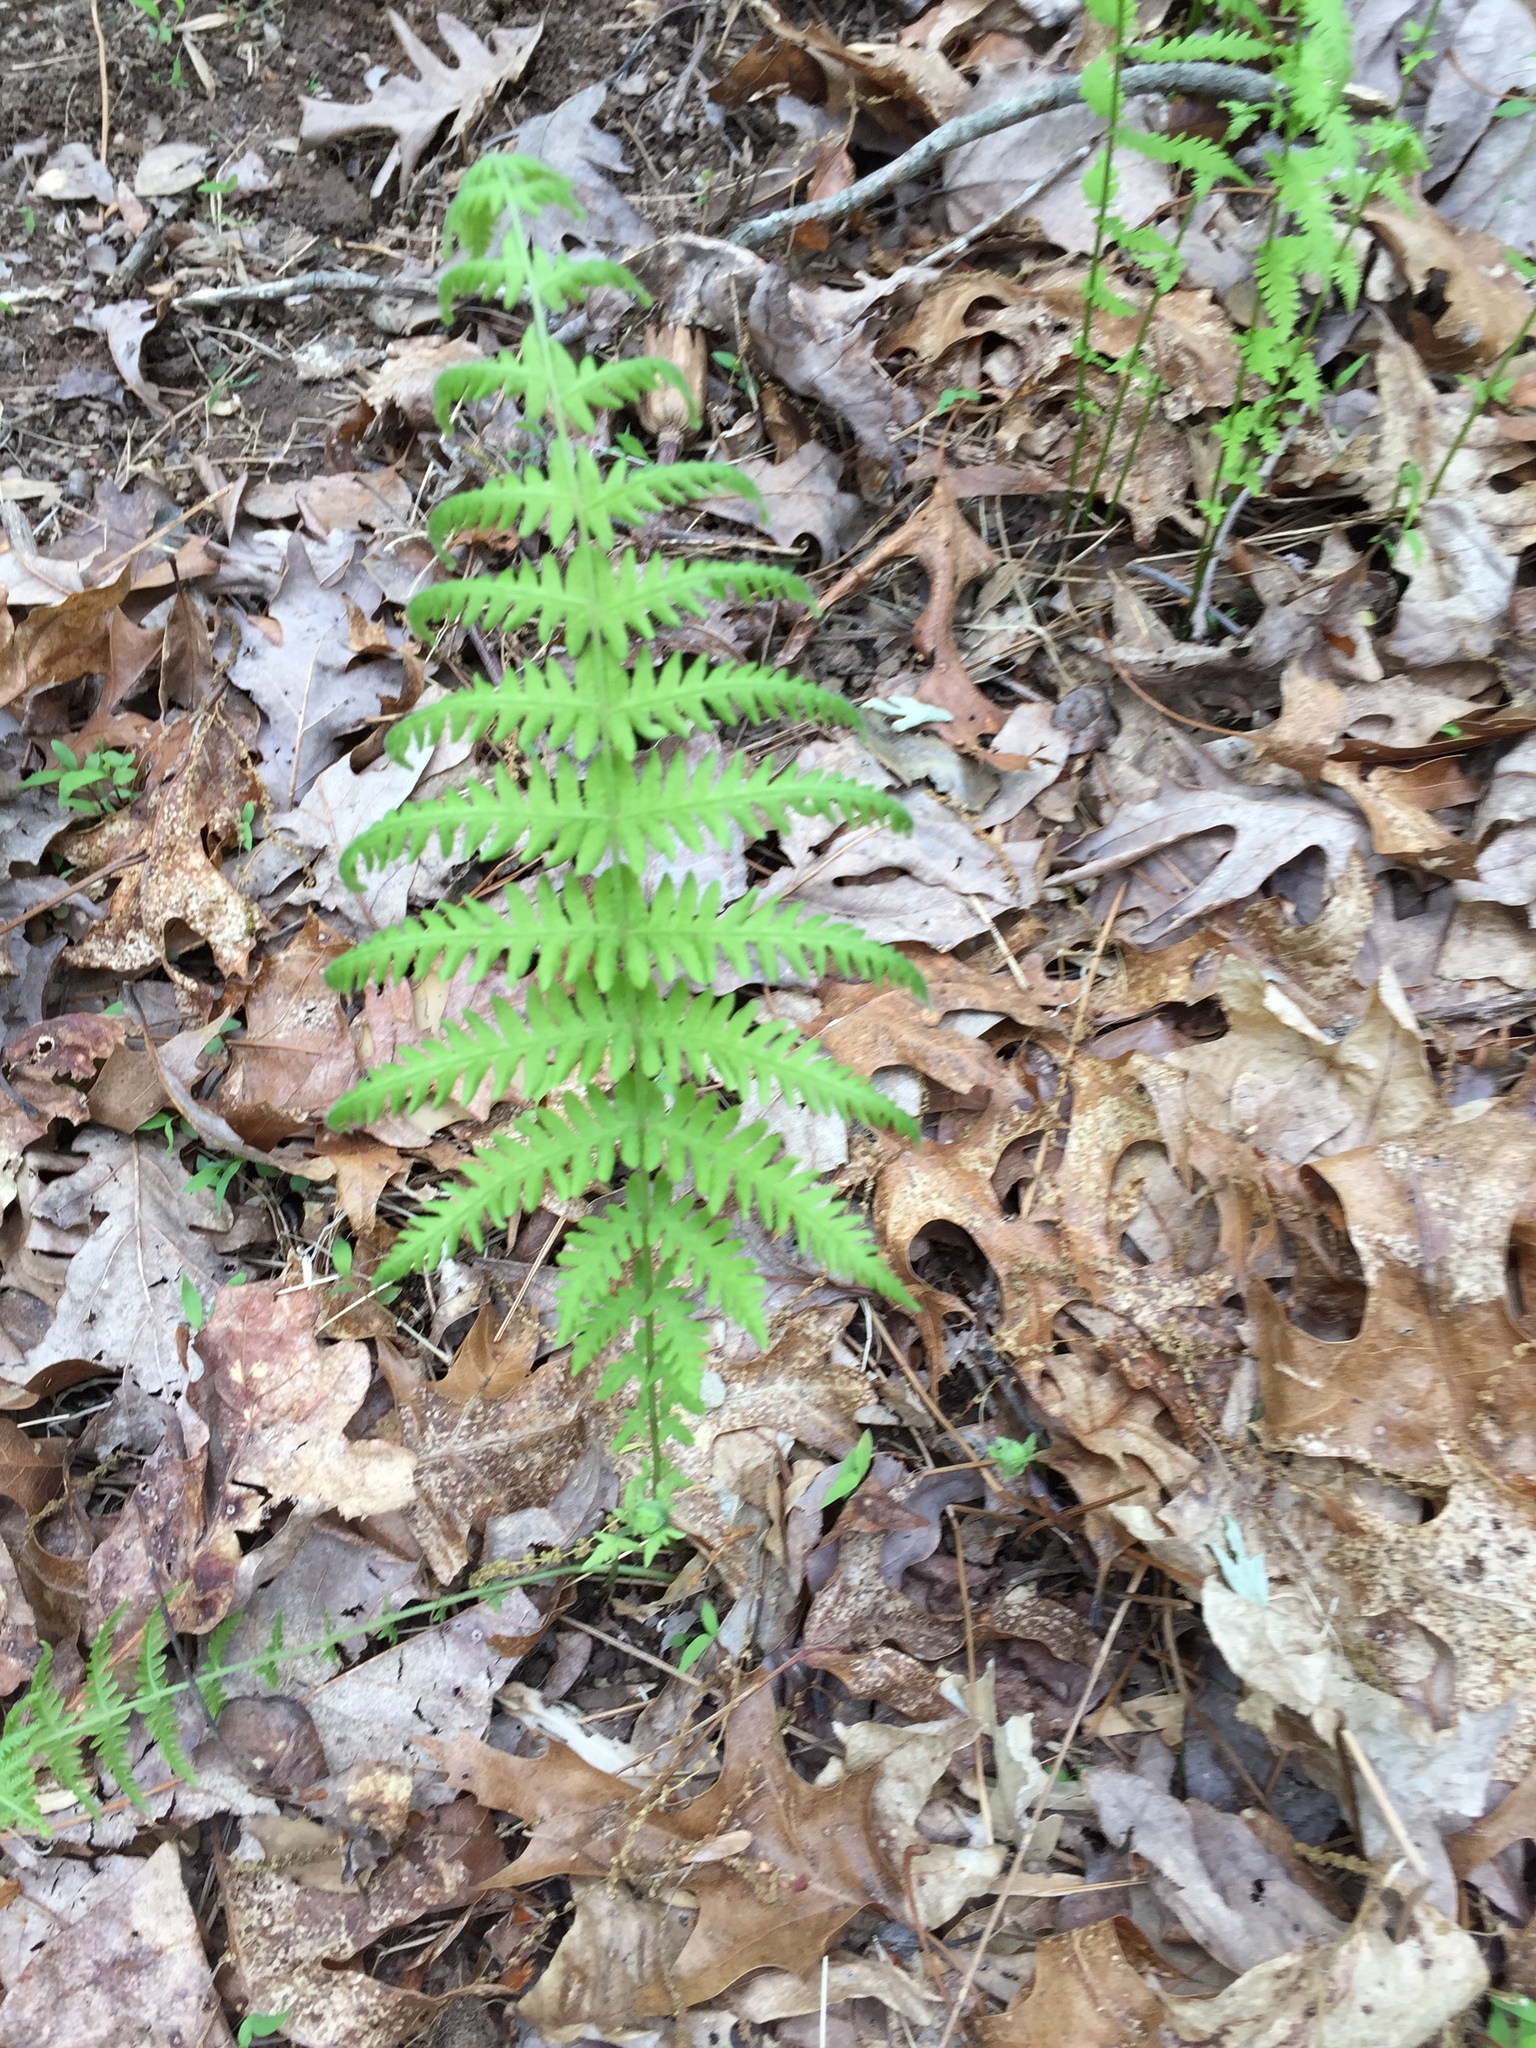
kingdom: Plantae
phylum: Tracheophyta
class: Polypodiopsida
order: Polypodiales
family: Thelypteridaceae
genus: Amauropelta
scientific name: Amauropelta noveboracensis
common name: New york fern
